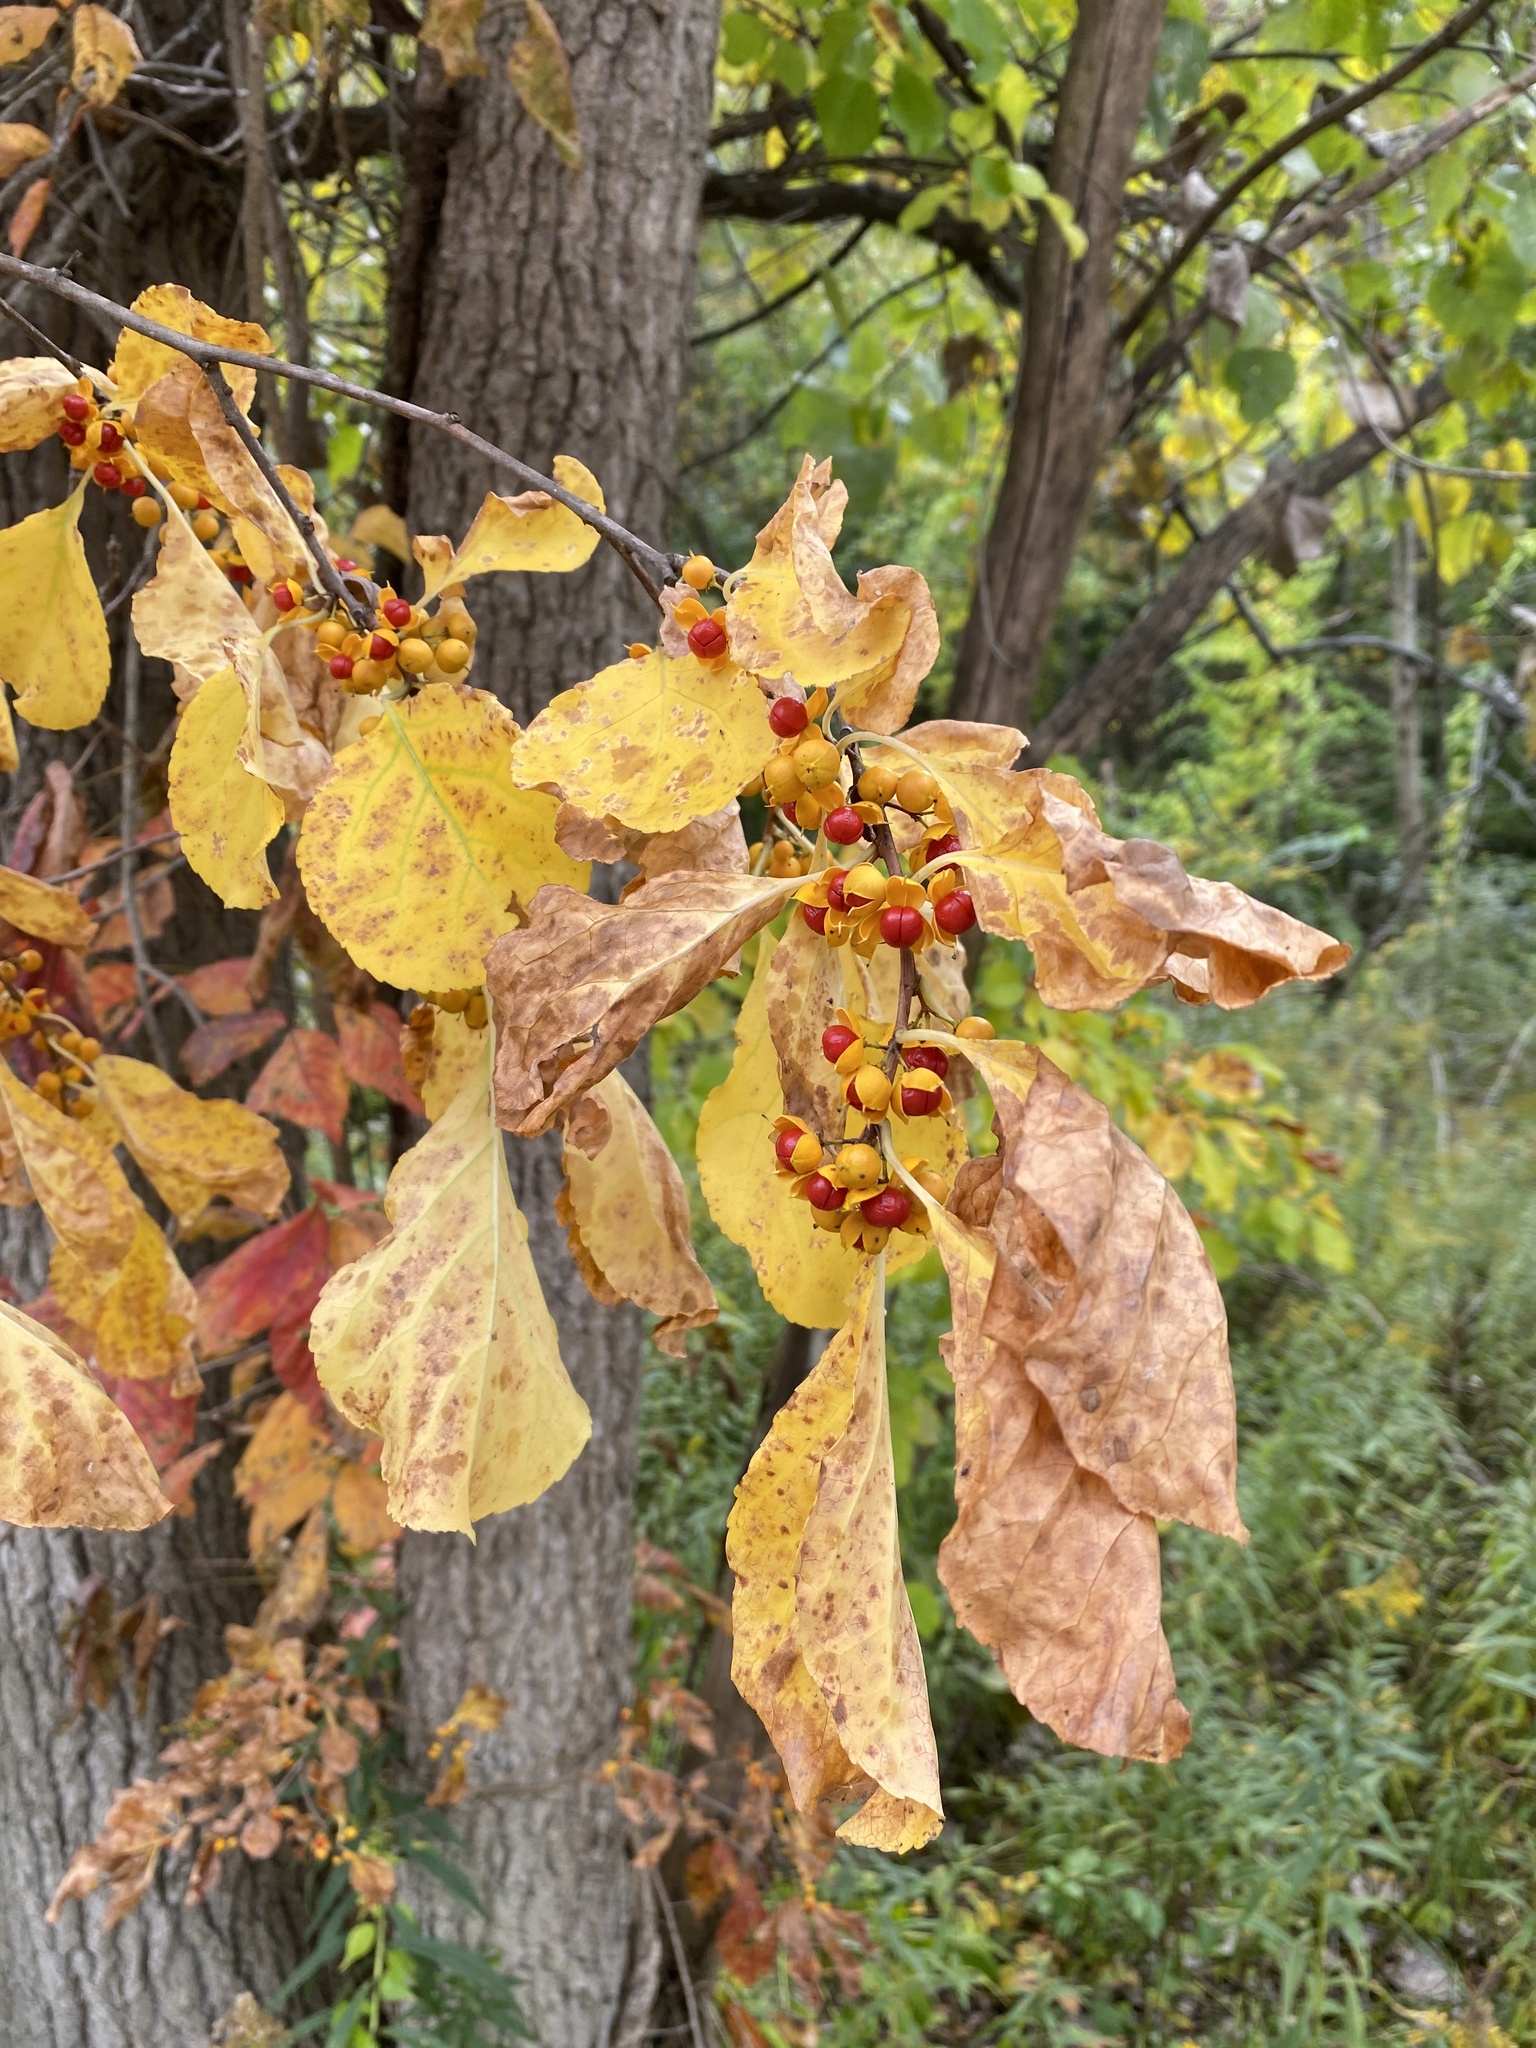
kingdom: Plantae
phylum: Tracheophyta
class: Magnoliopsida
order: Celastrales
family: Celastraceae
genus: Celastrus
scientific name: Celastrus orbiculatus
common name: Oriental bittersweet
